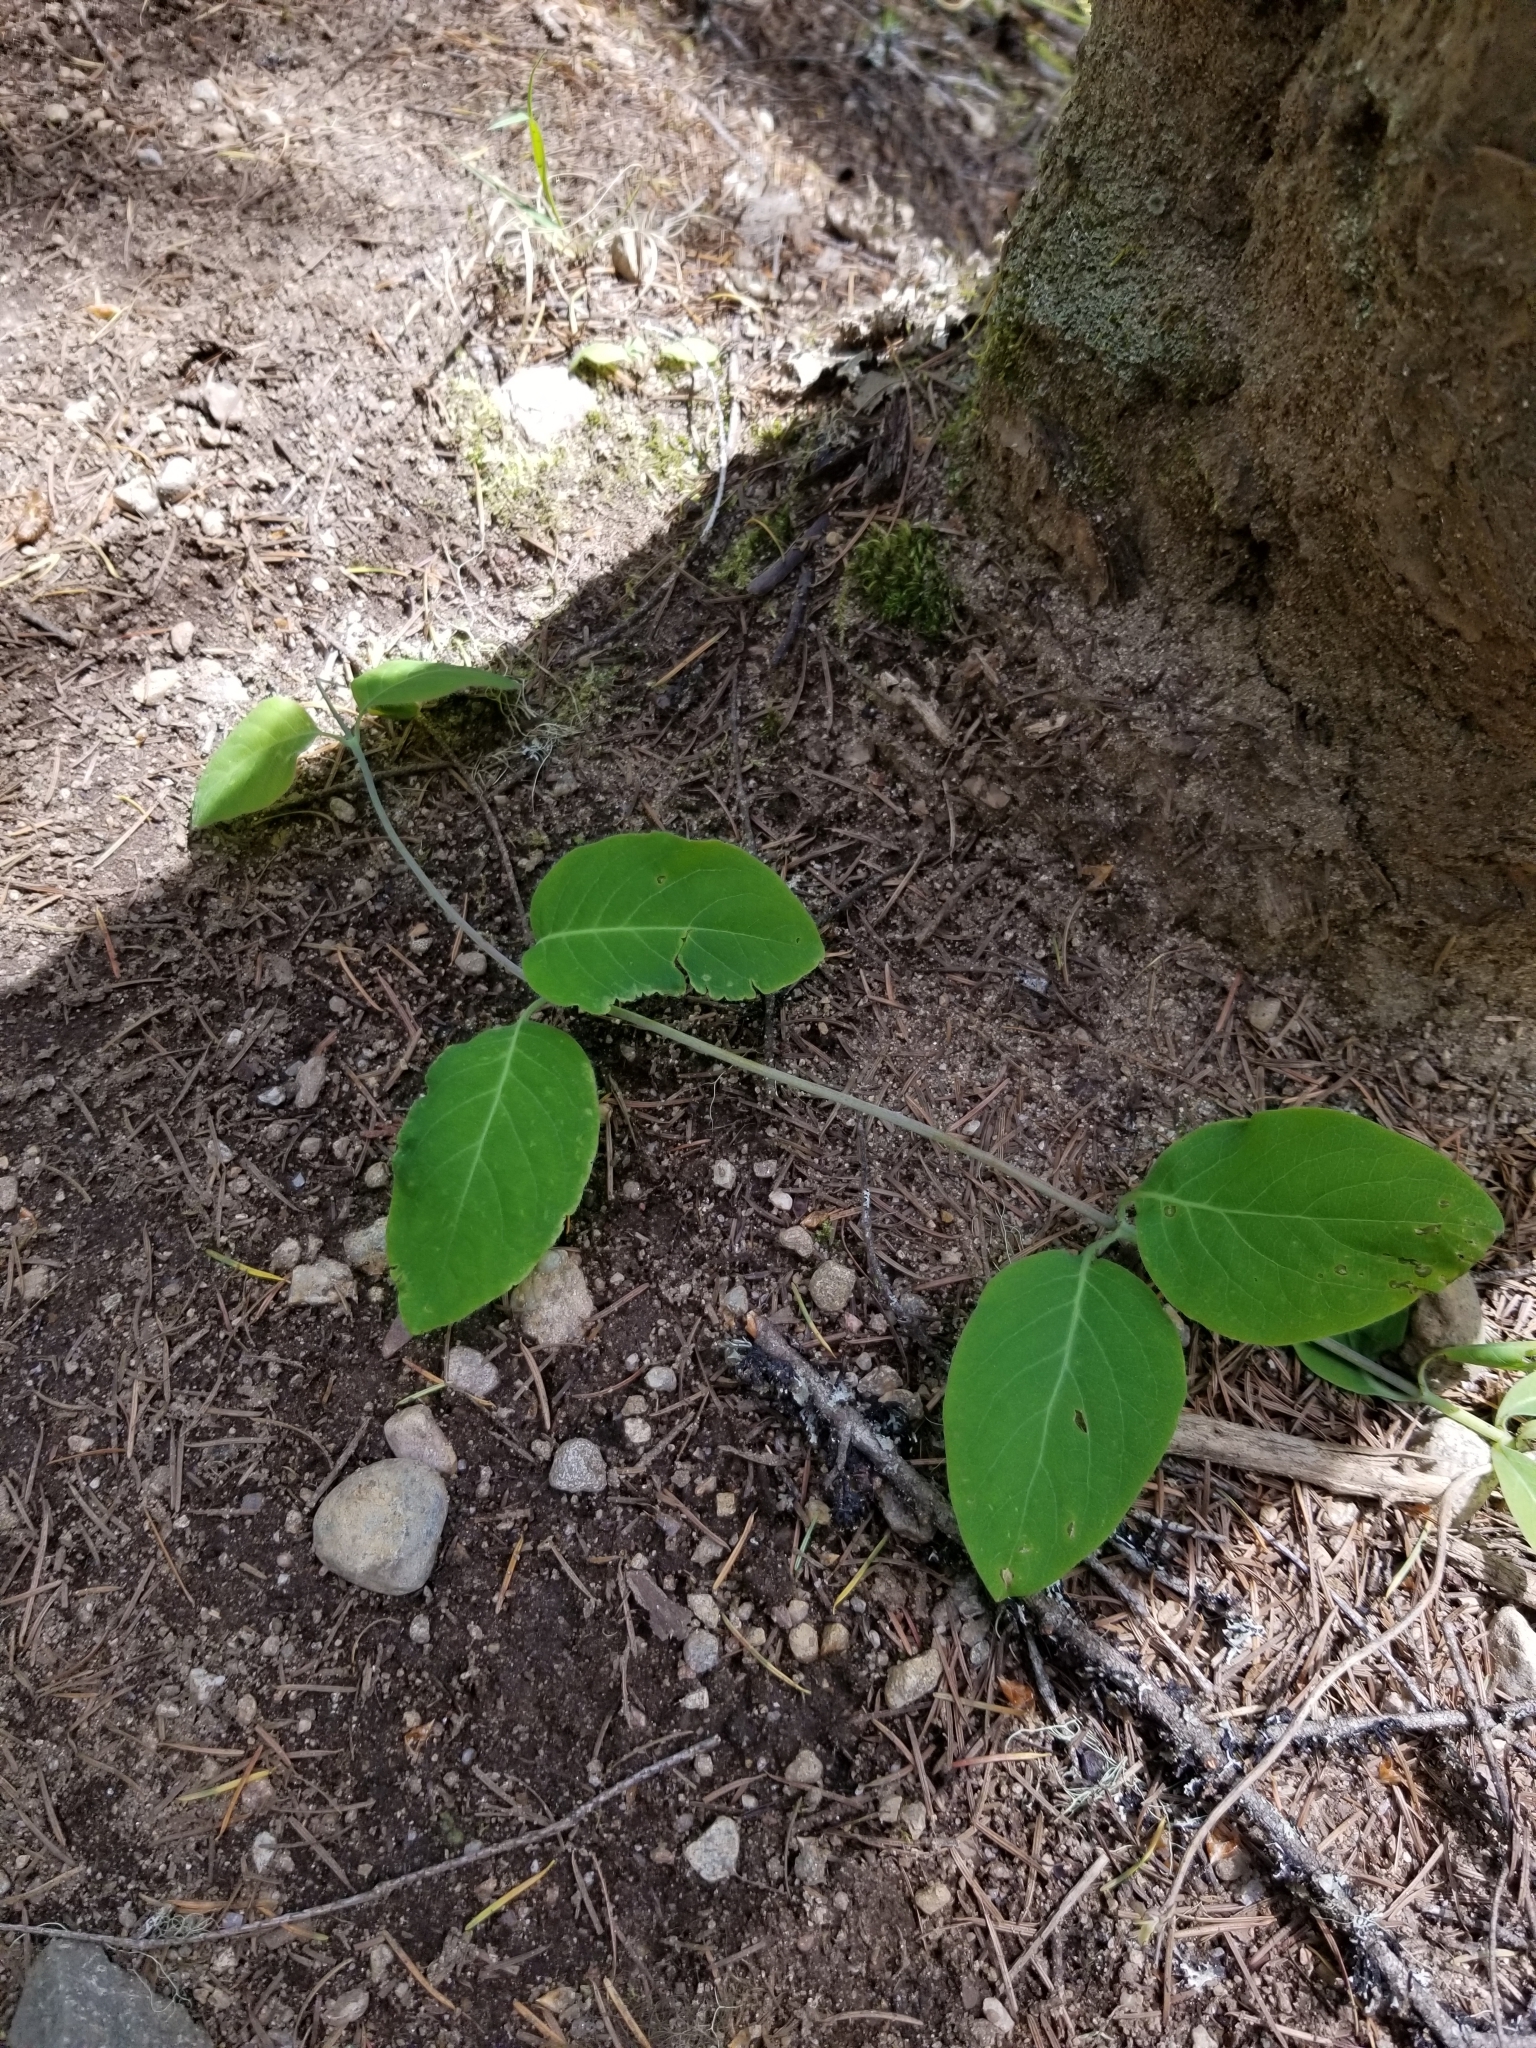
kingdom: Plantae
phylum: Tracheophyta
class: Magnoliopsida
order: Dipsacales
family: Caprifoliaceae
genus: Lonicera
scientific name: Lonicera ciliosa
